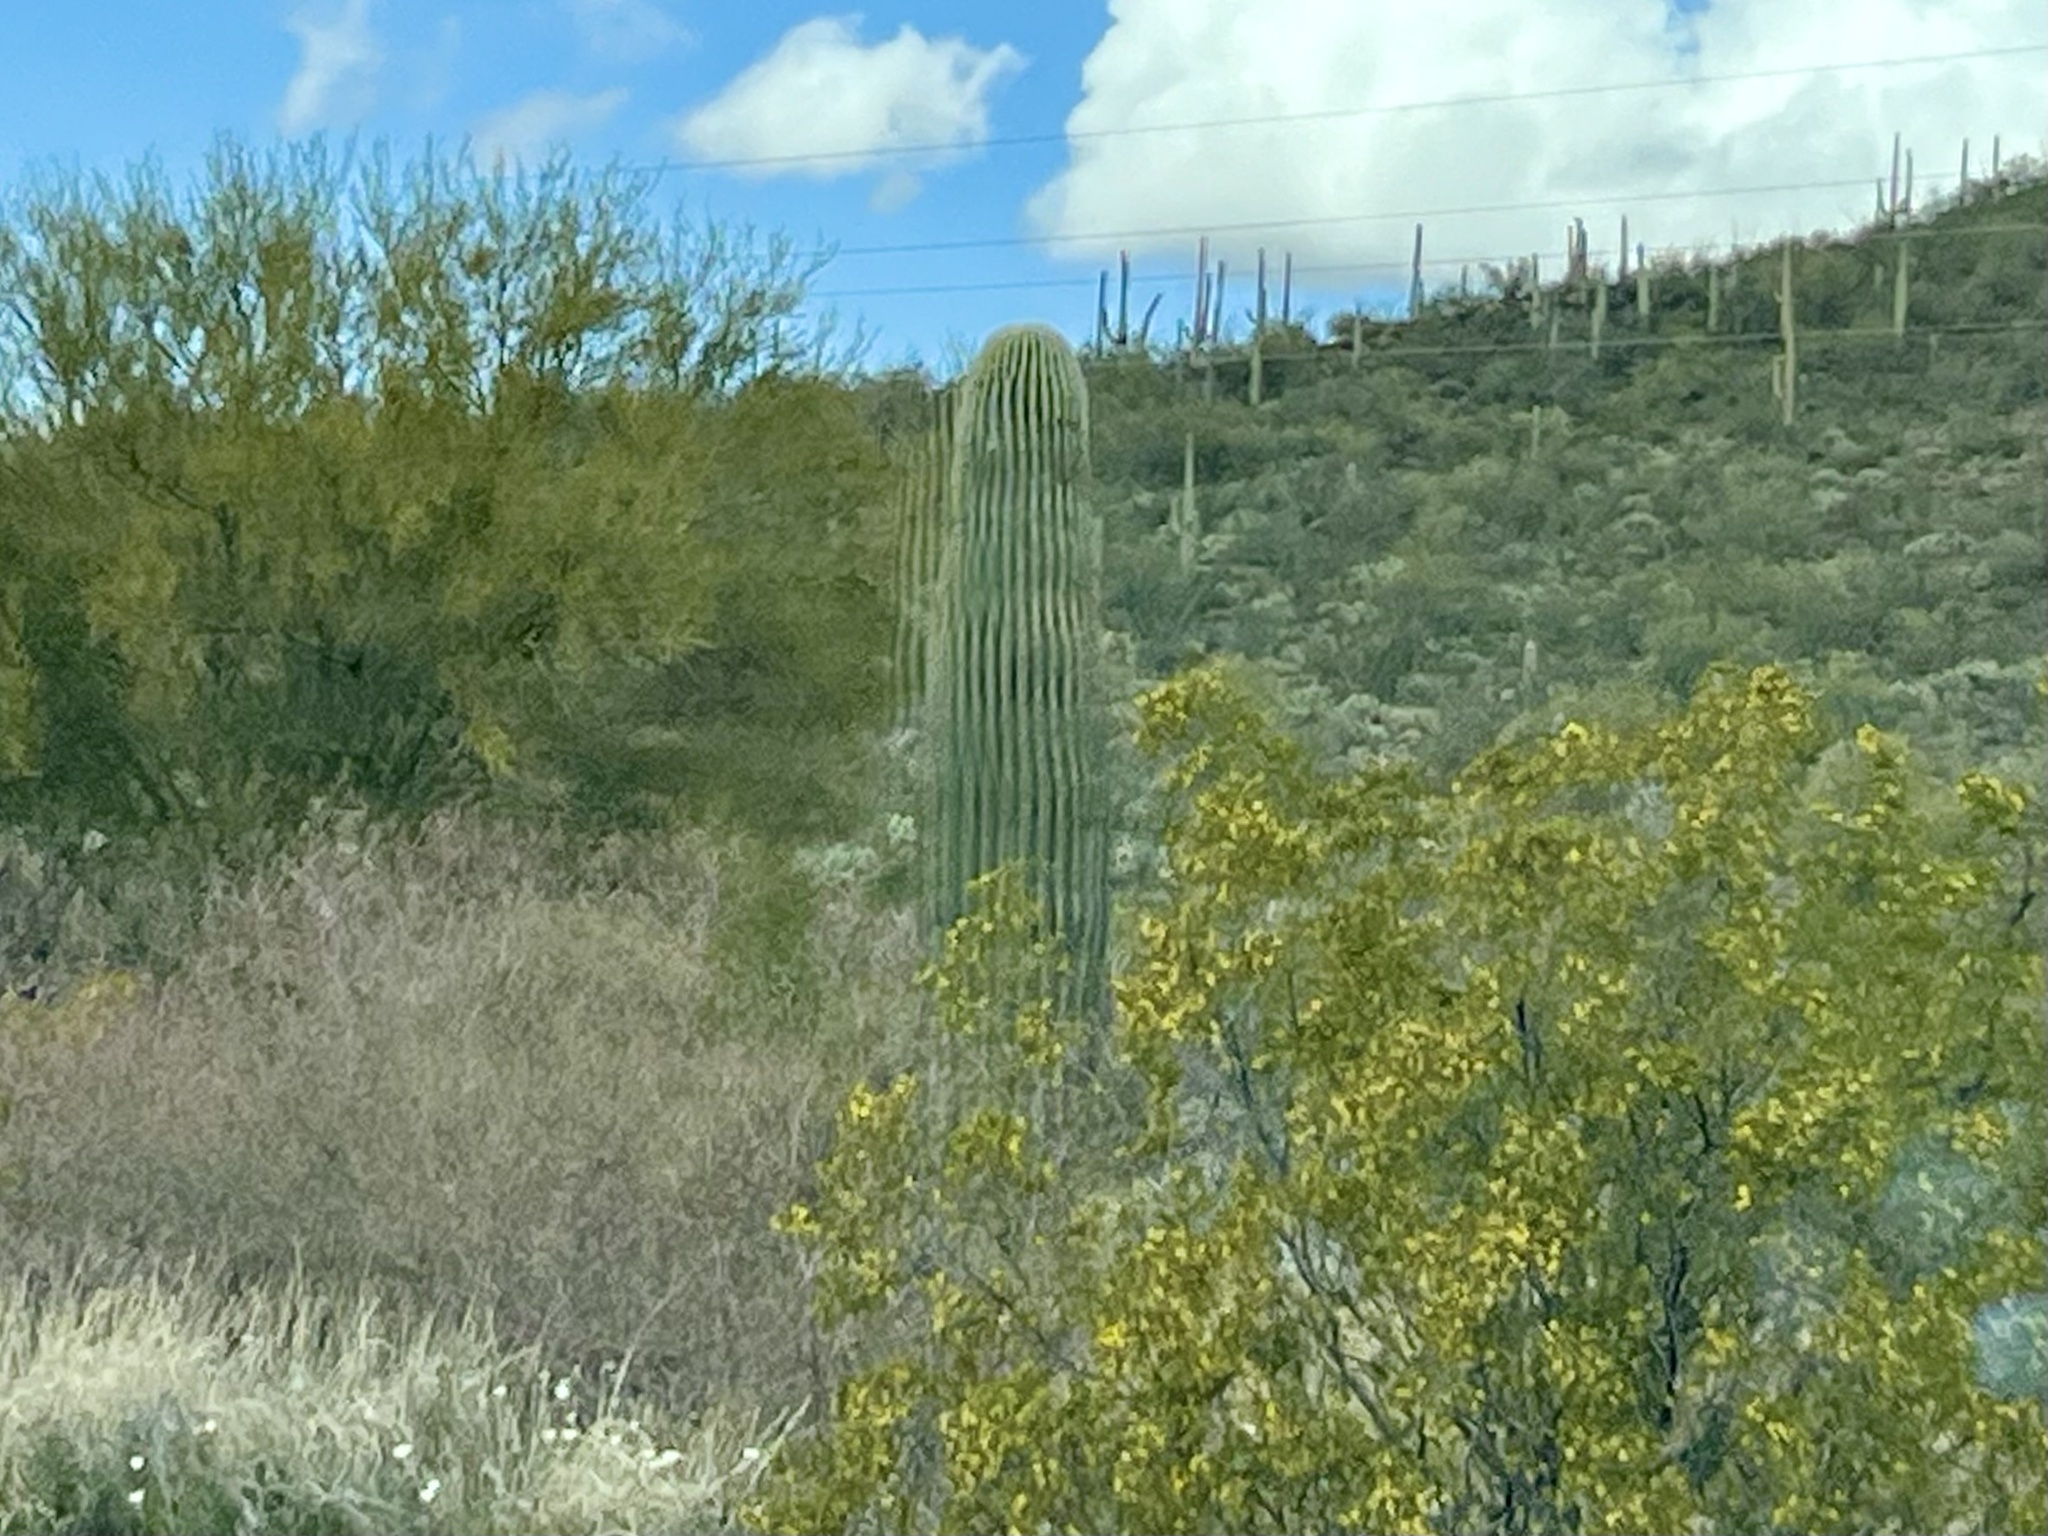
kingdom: Plantae
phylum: Tracheophyta
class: Magnoliopsida
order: Caryophyllales
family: Cactaceae
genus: Carnegiea
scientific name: Carnegiea gigantea
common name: Saguaro
